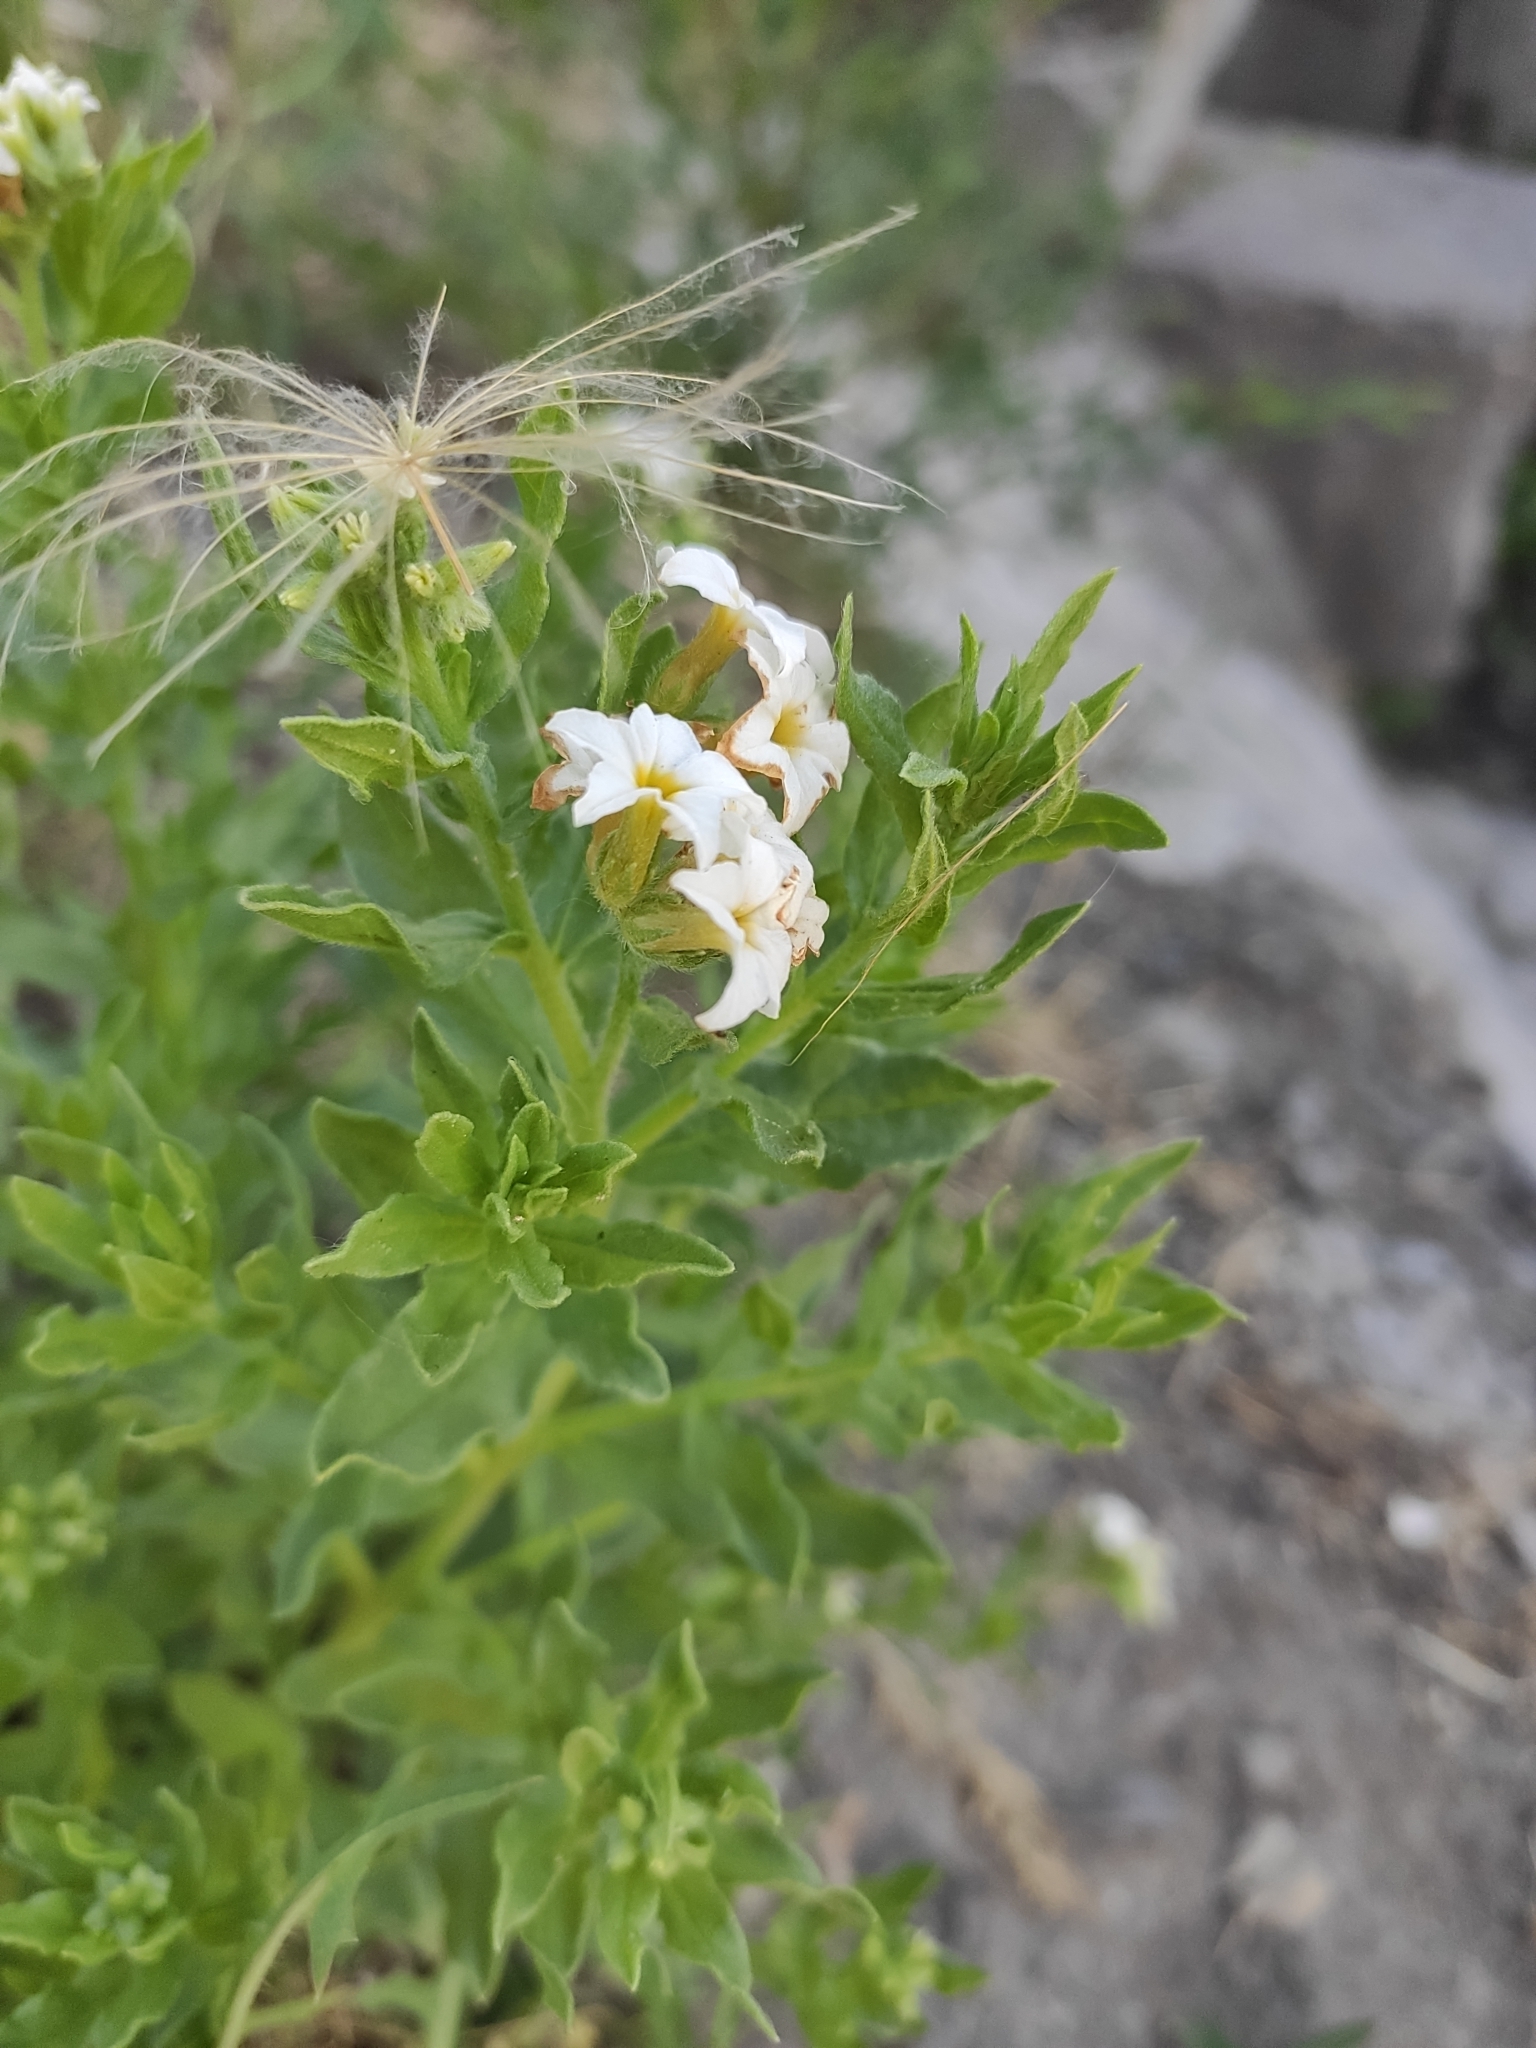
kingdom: Plantae
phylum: Tracheophyta
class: Magnoliopsida
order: Boraginales
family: Heliotropiaceae
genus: Tournefortia
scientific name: Tournefortia sibirica
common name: Siberian sea rosemary
